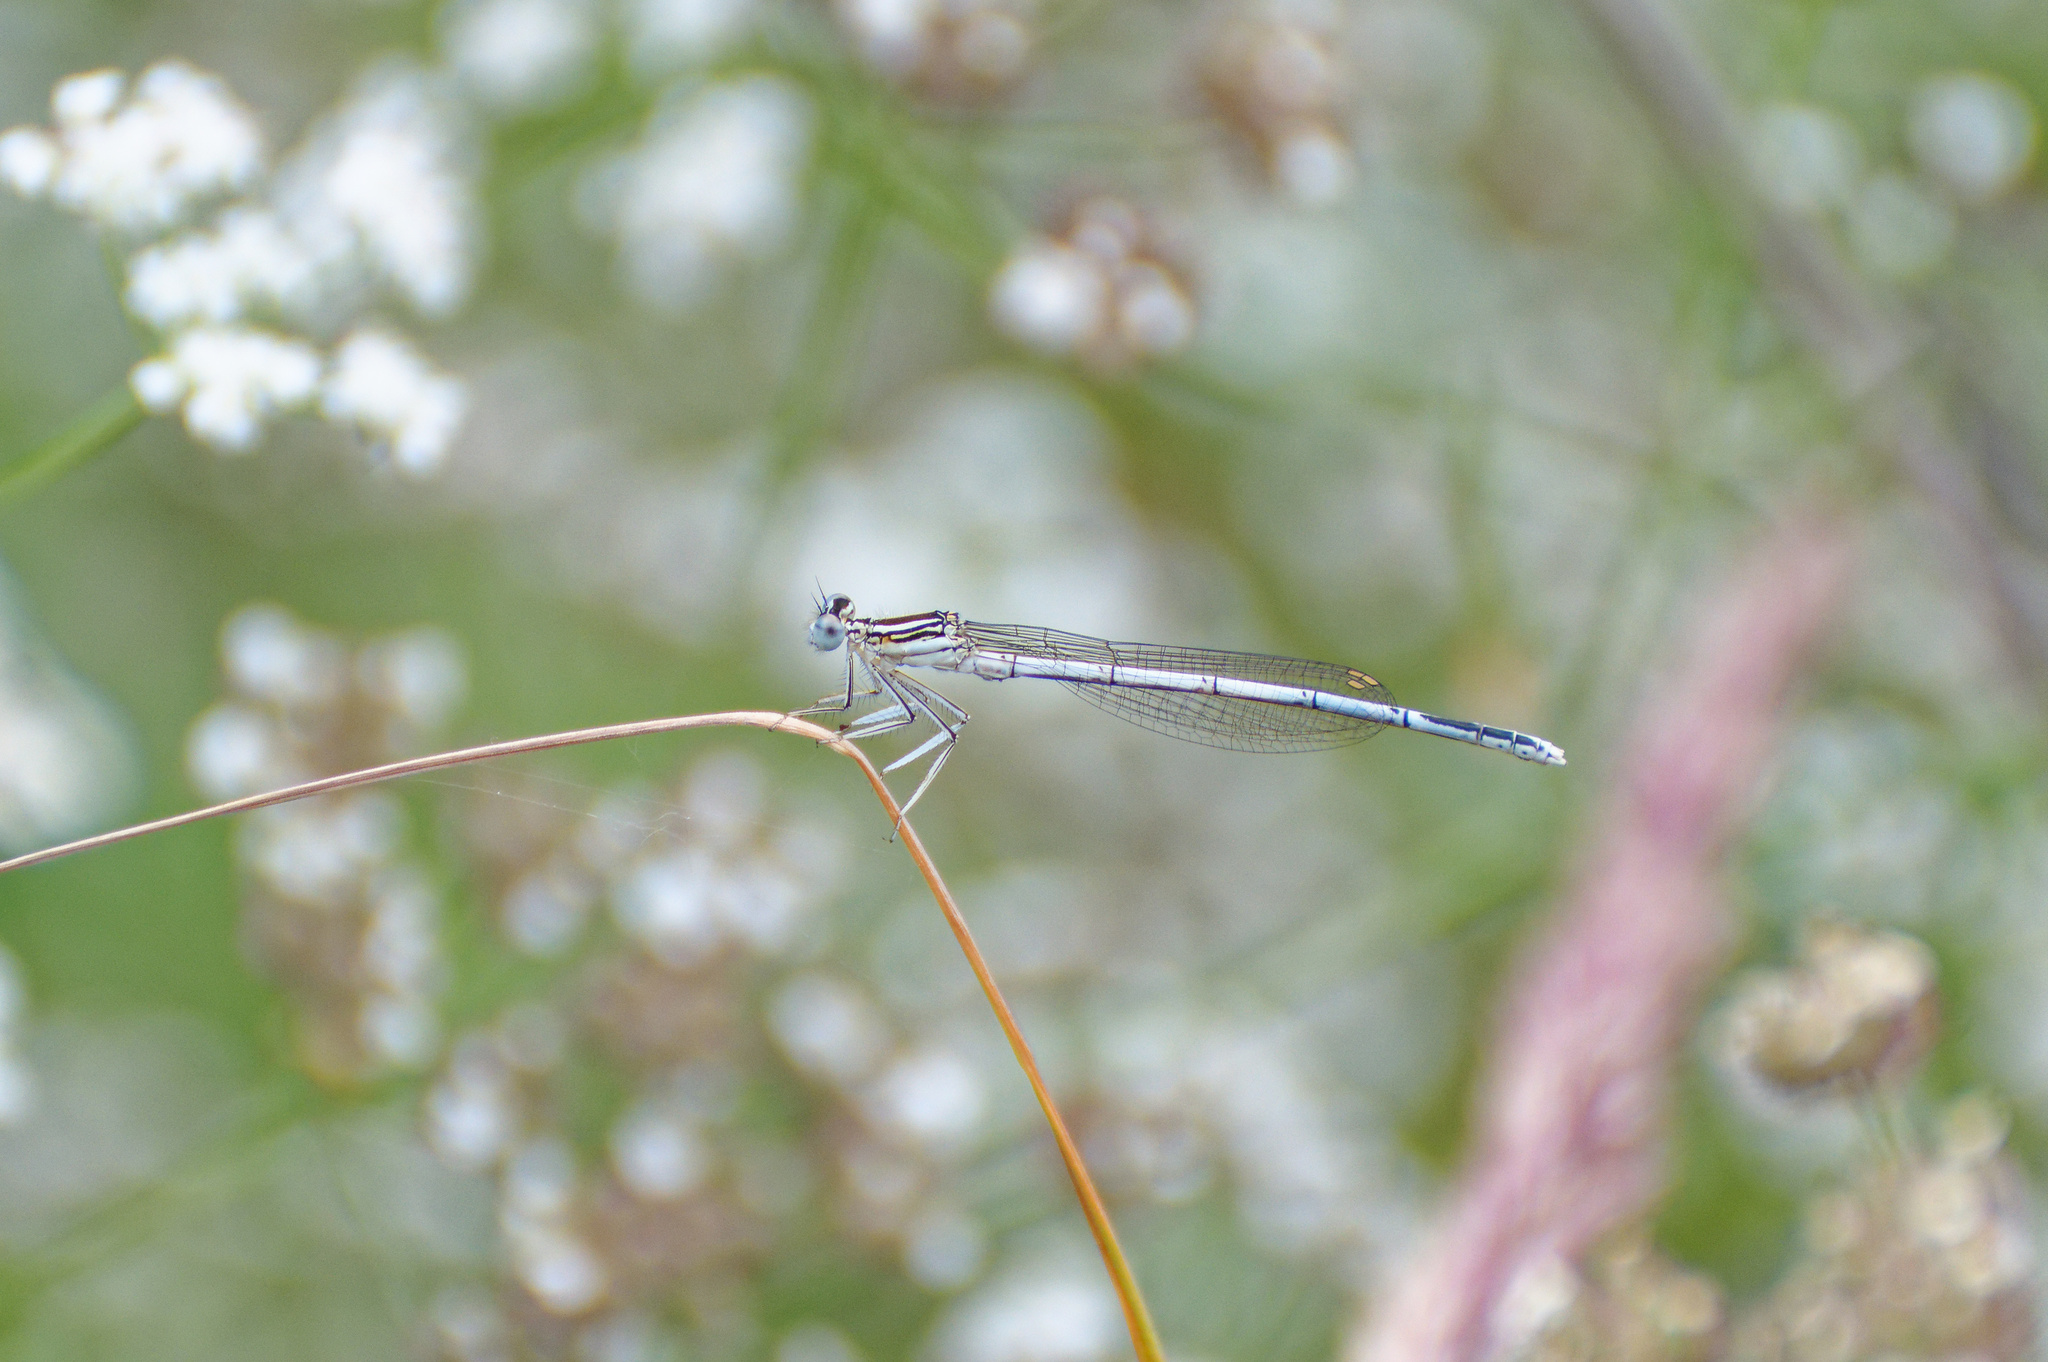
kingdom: Animalia
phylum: Arthropoda
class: Insecta
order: Odonata
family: Platycnemididae
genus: Platycnemis
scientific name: Platycnemis pennipes
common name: White-legged damselfly
